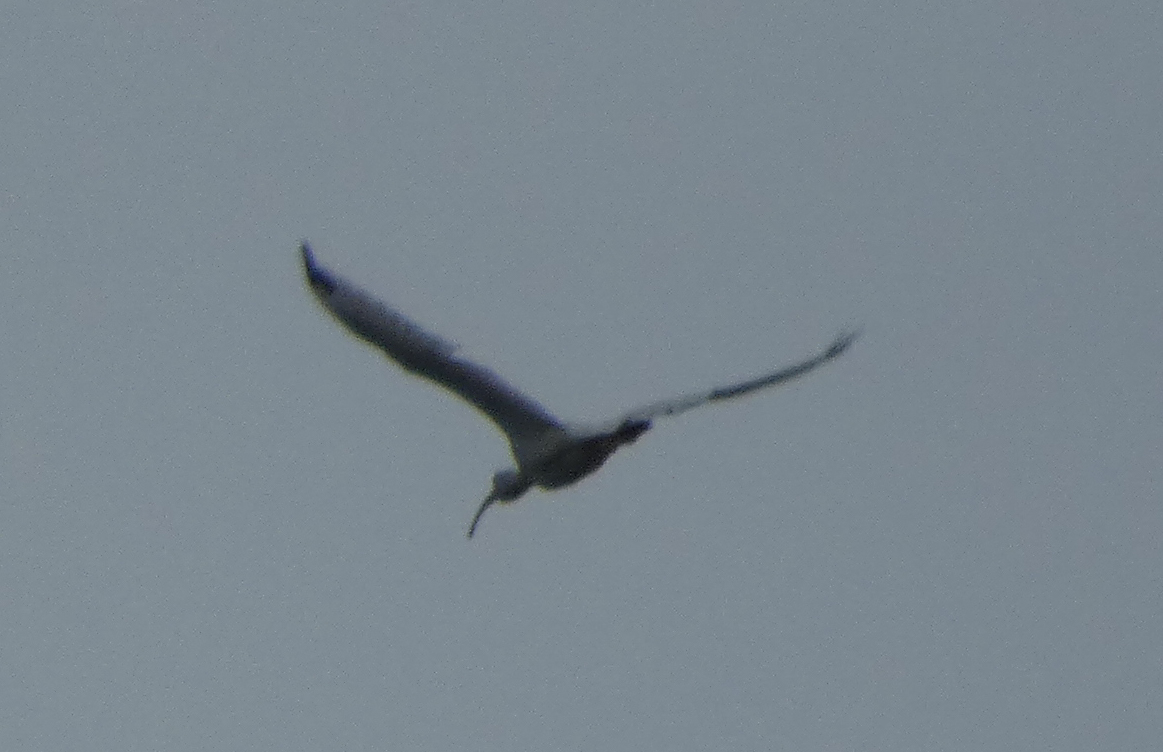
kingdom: Animalia
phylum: Chordata
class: Aves
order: Pelecaniformes
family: Threskiornithidae
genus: Eudocimus
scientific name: Eudocimus albus
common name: White ibis
